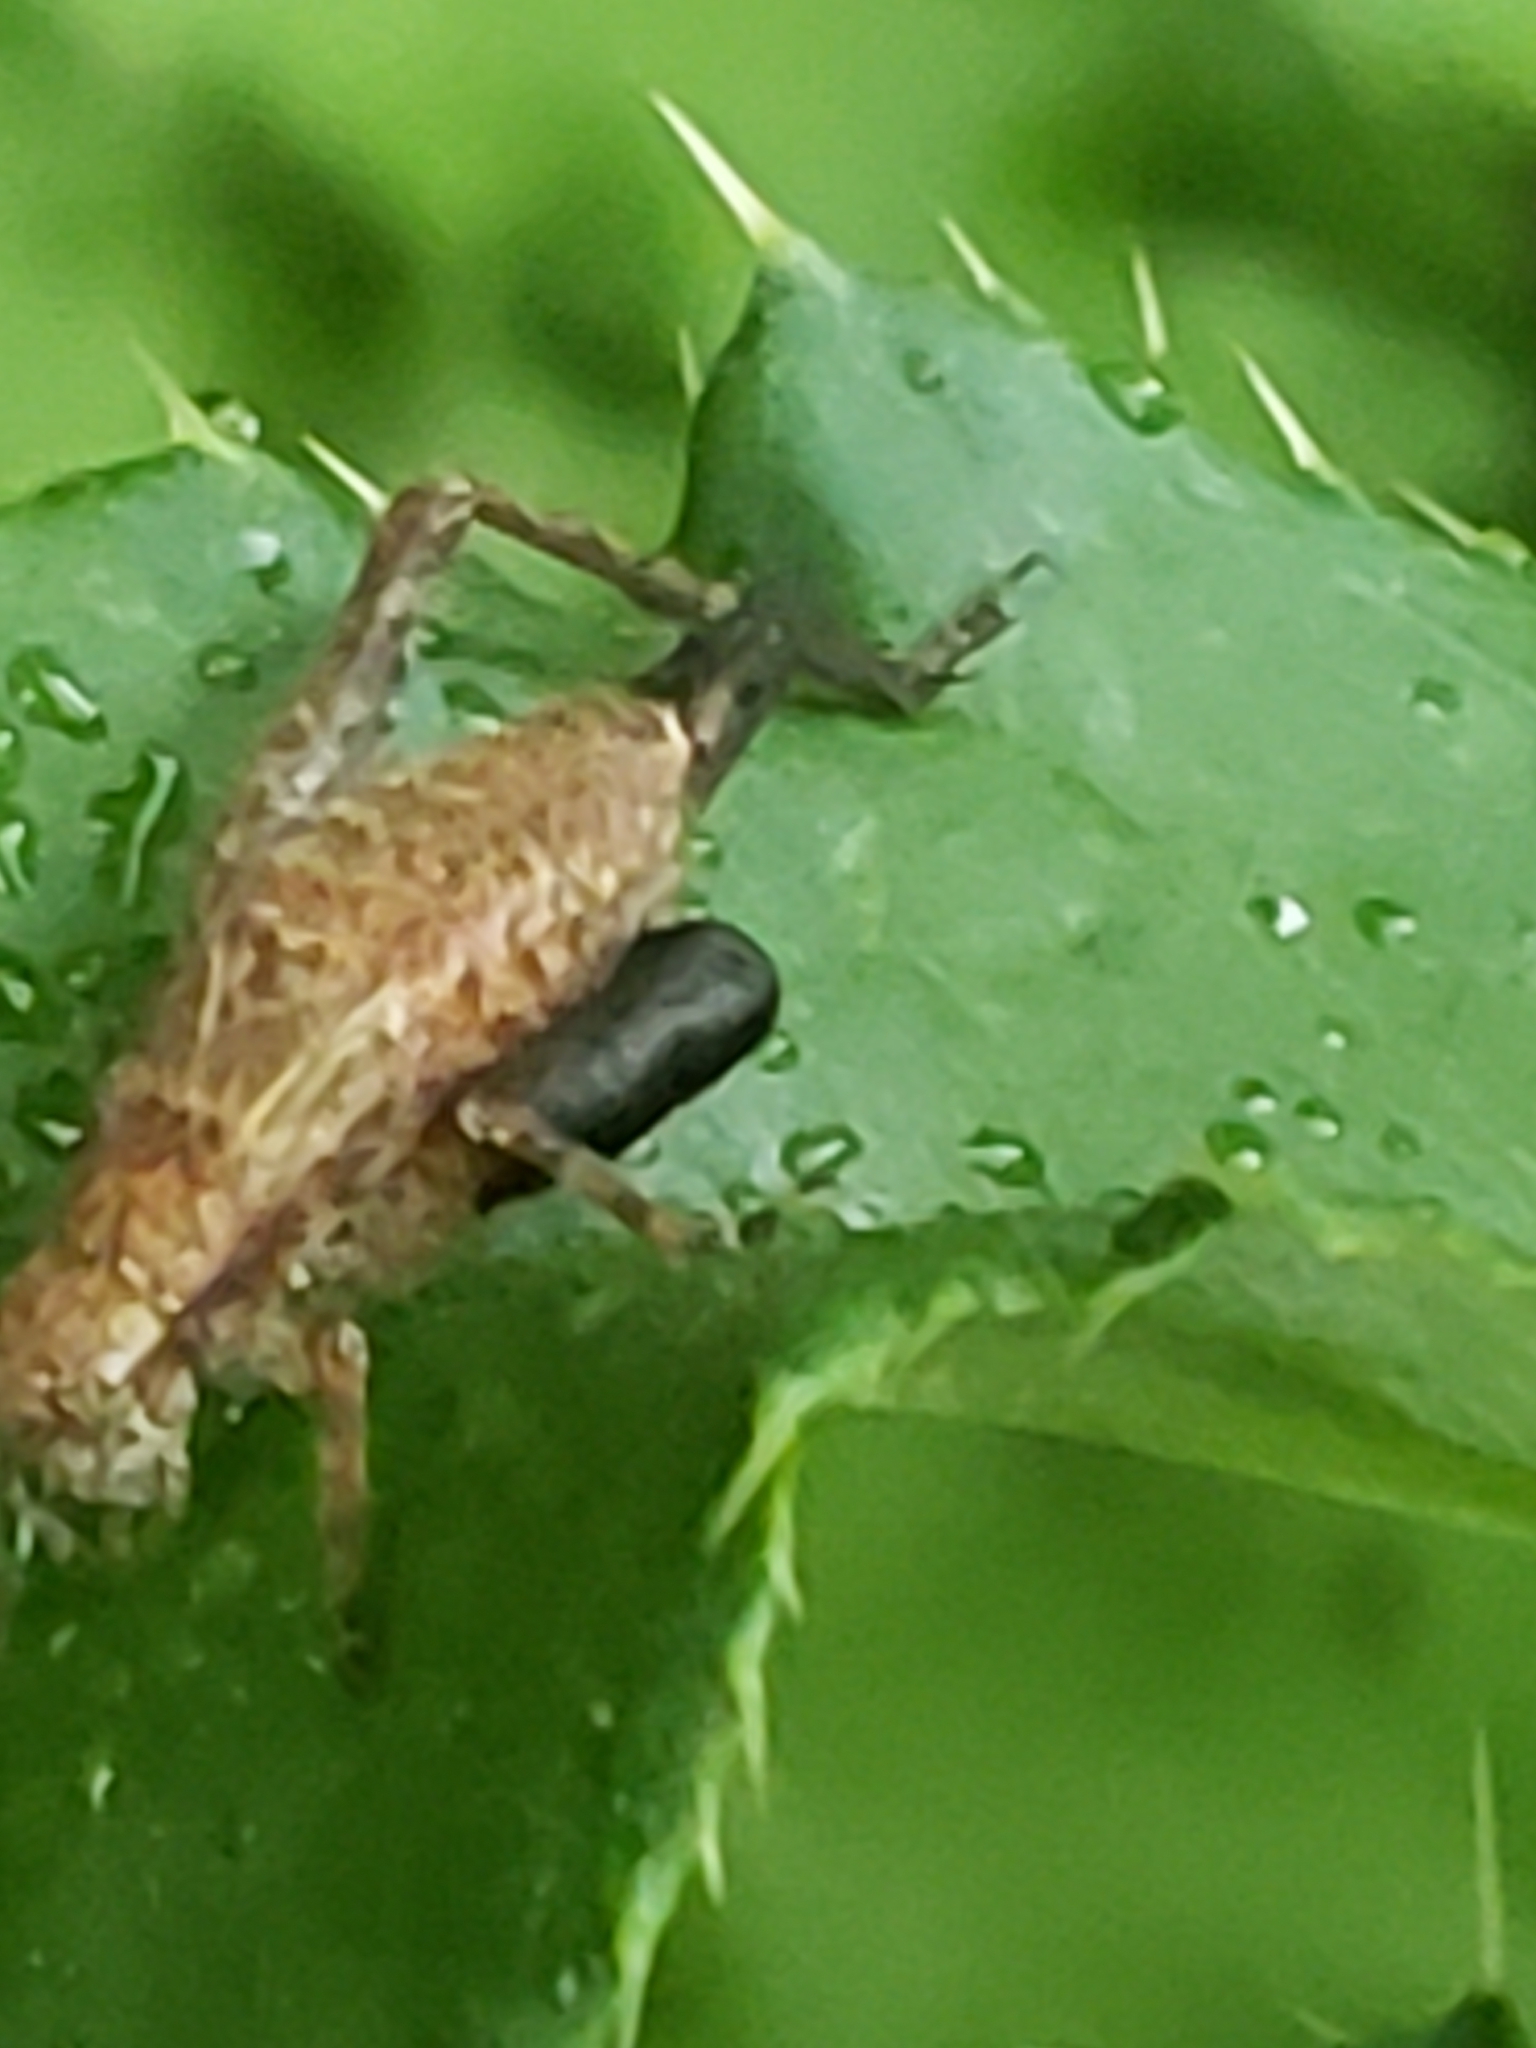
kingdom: Animalia
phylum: Arthropoda
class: Insecta
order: Orthoptera
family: Gryllidae
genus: Hapithus
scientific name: Hapithus saltator
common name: Jumping bush cricket
